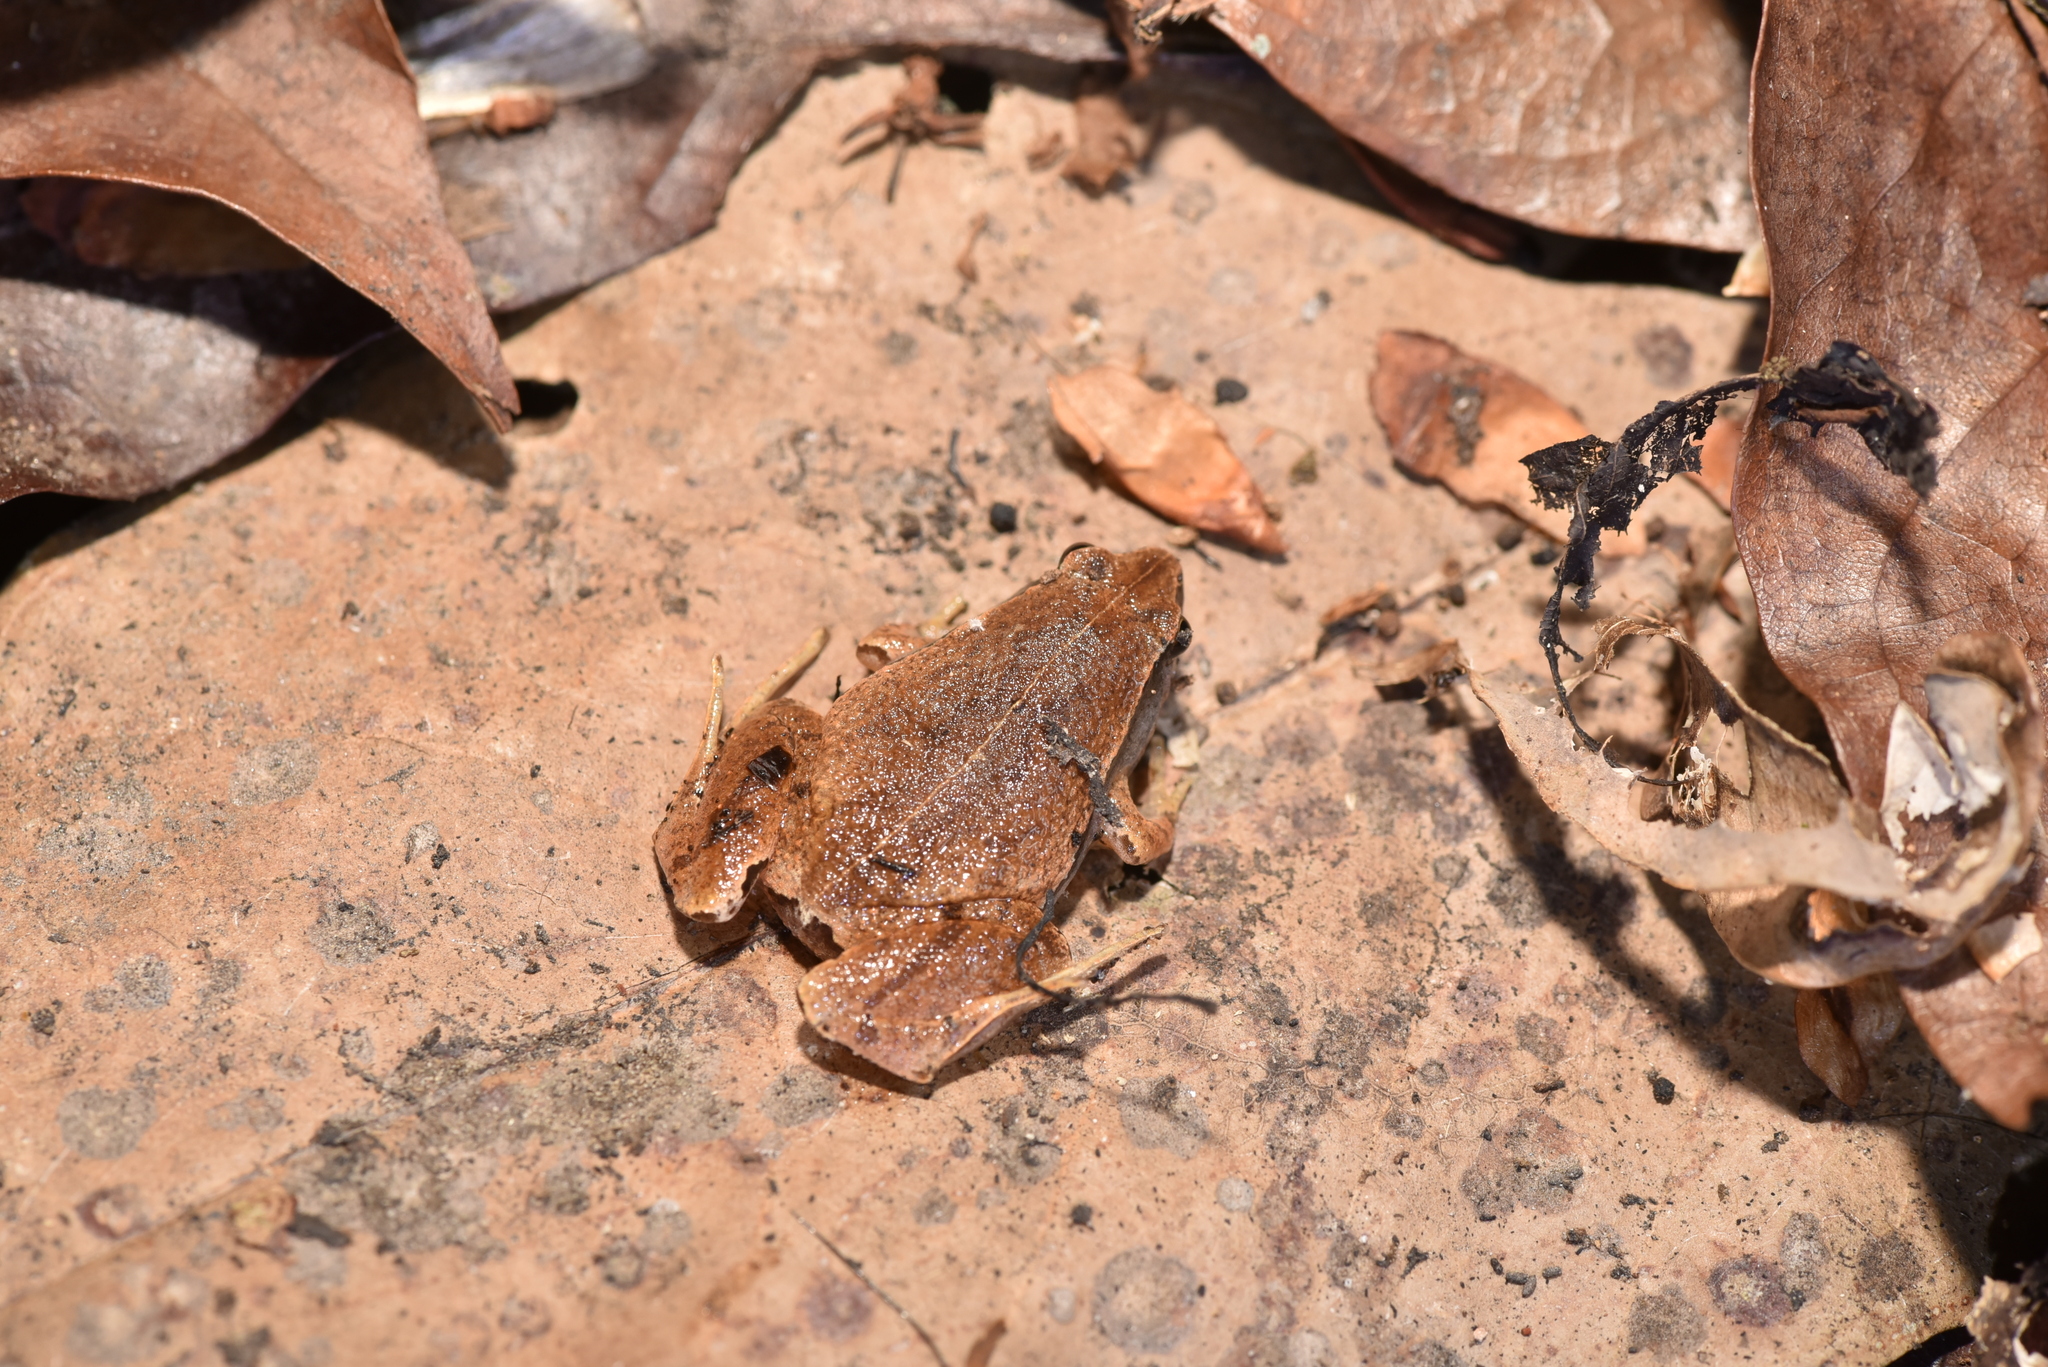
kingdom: Animalia
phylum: Chordata
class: Amphibia
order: Anura
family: Microhylidae
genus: Microhyla
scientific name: Microhyla heymonsi
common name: Taiwan rice frog,dark sided chorus frog
